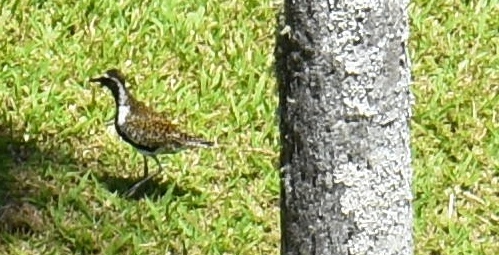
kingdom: Animalia
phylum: Chordata
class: Aves
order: Charadriiformes
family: Charadriidae
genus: Pluvialis
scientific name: Pluvialis fulva
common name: Pacific golden plover
